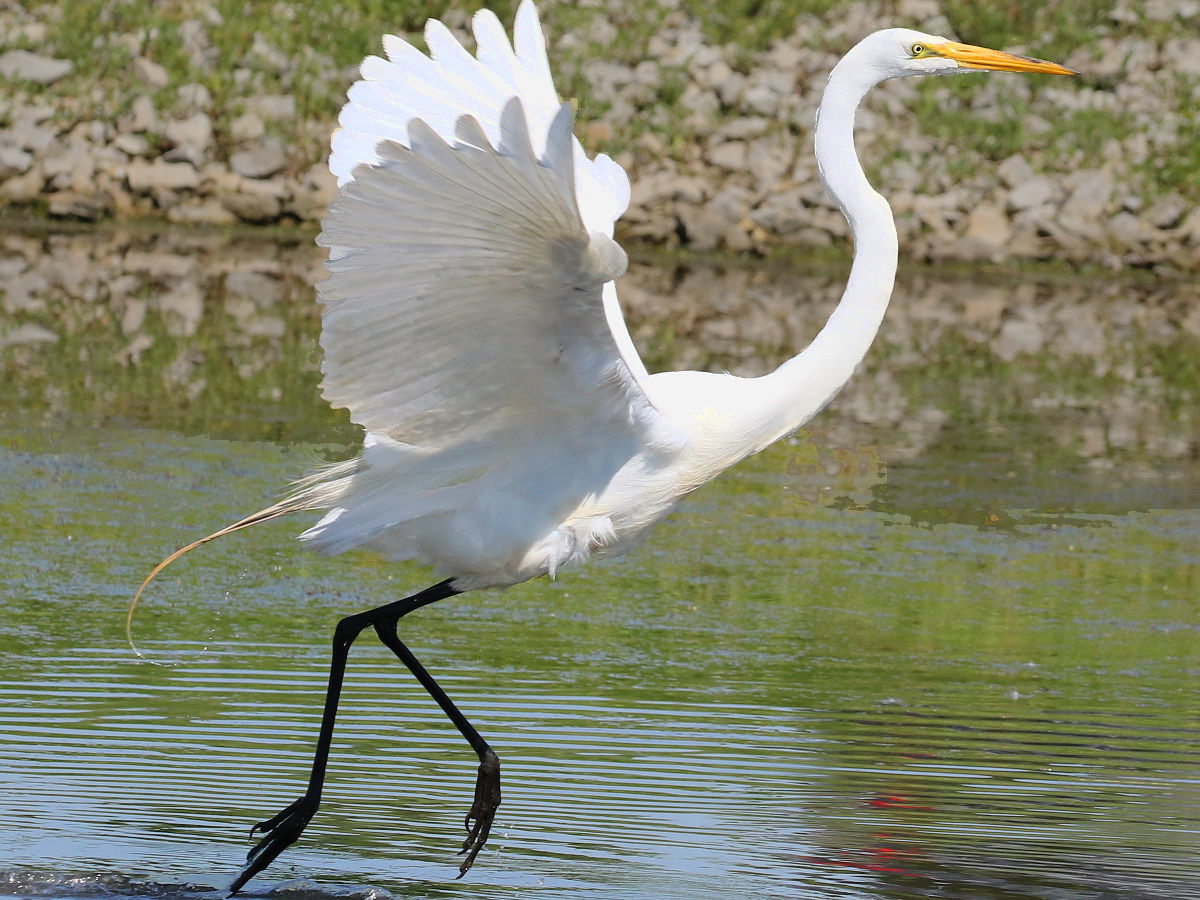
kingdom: Animalia
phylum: Chordata
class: Aves
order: Pelecaniformes
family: Ardeidae
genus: Ardea
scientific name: Ardea alba
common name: Great egret
